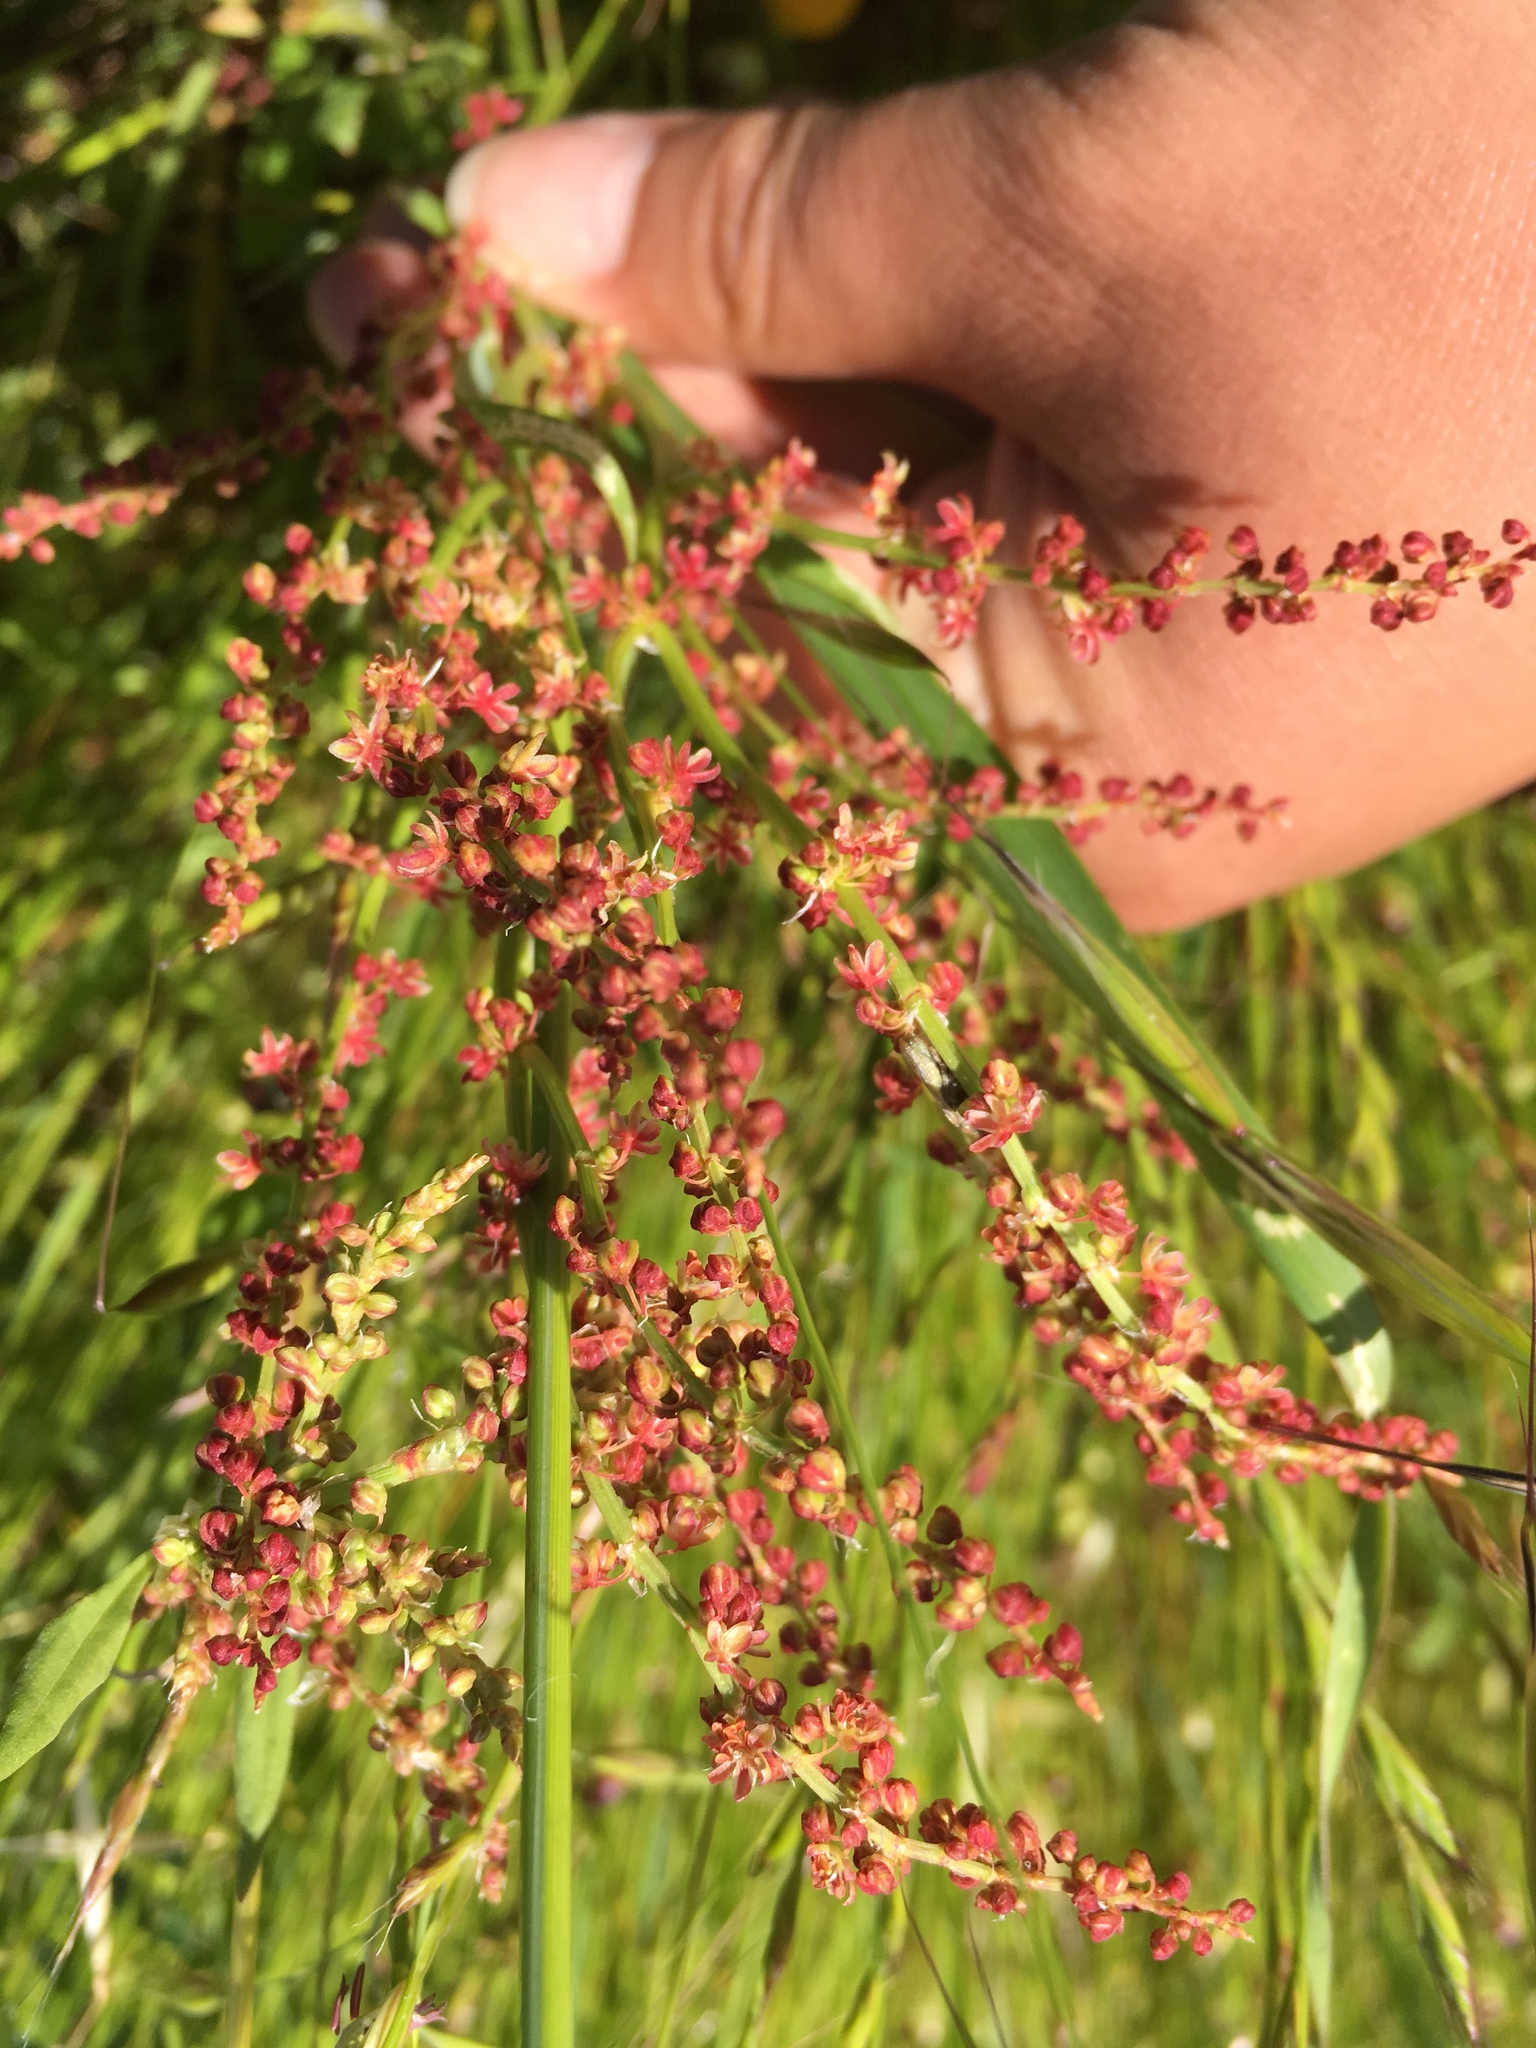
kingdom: Plantae
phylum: Tracheophyta
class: Magnoliopsida
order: Caryophyllales
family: Polygonaceae
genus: Rumex
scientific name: Rumex acetosella
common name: Common sheep sorrel
